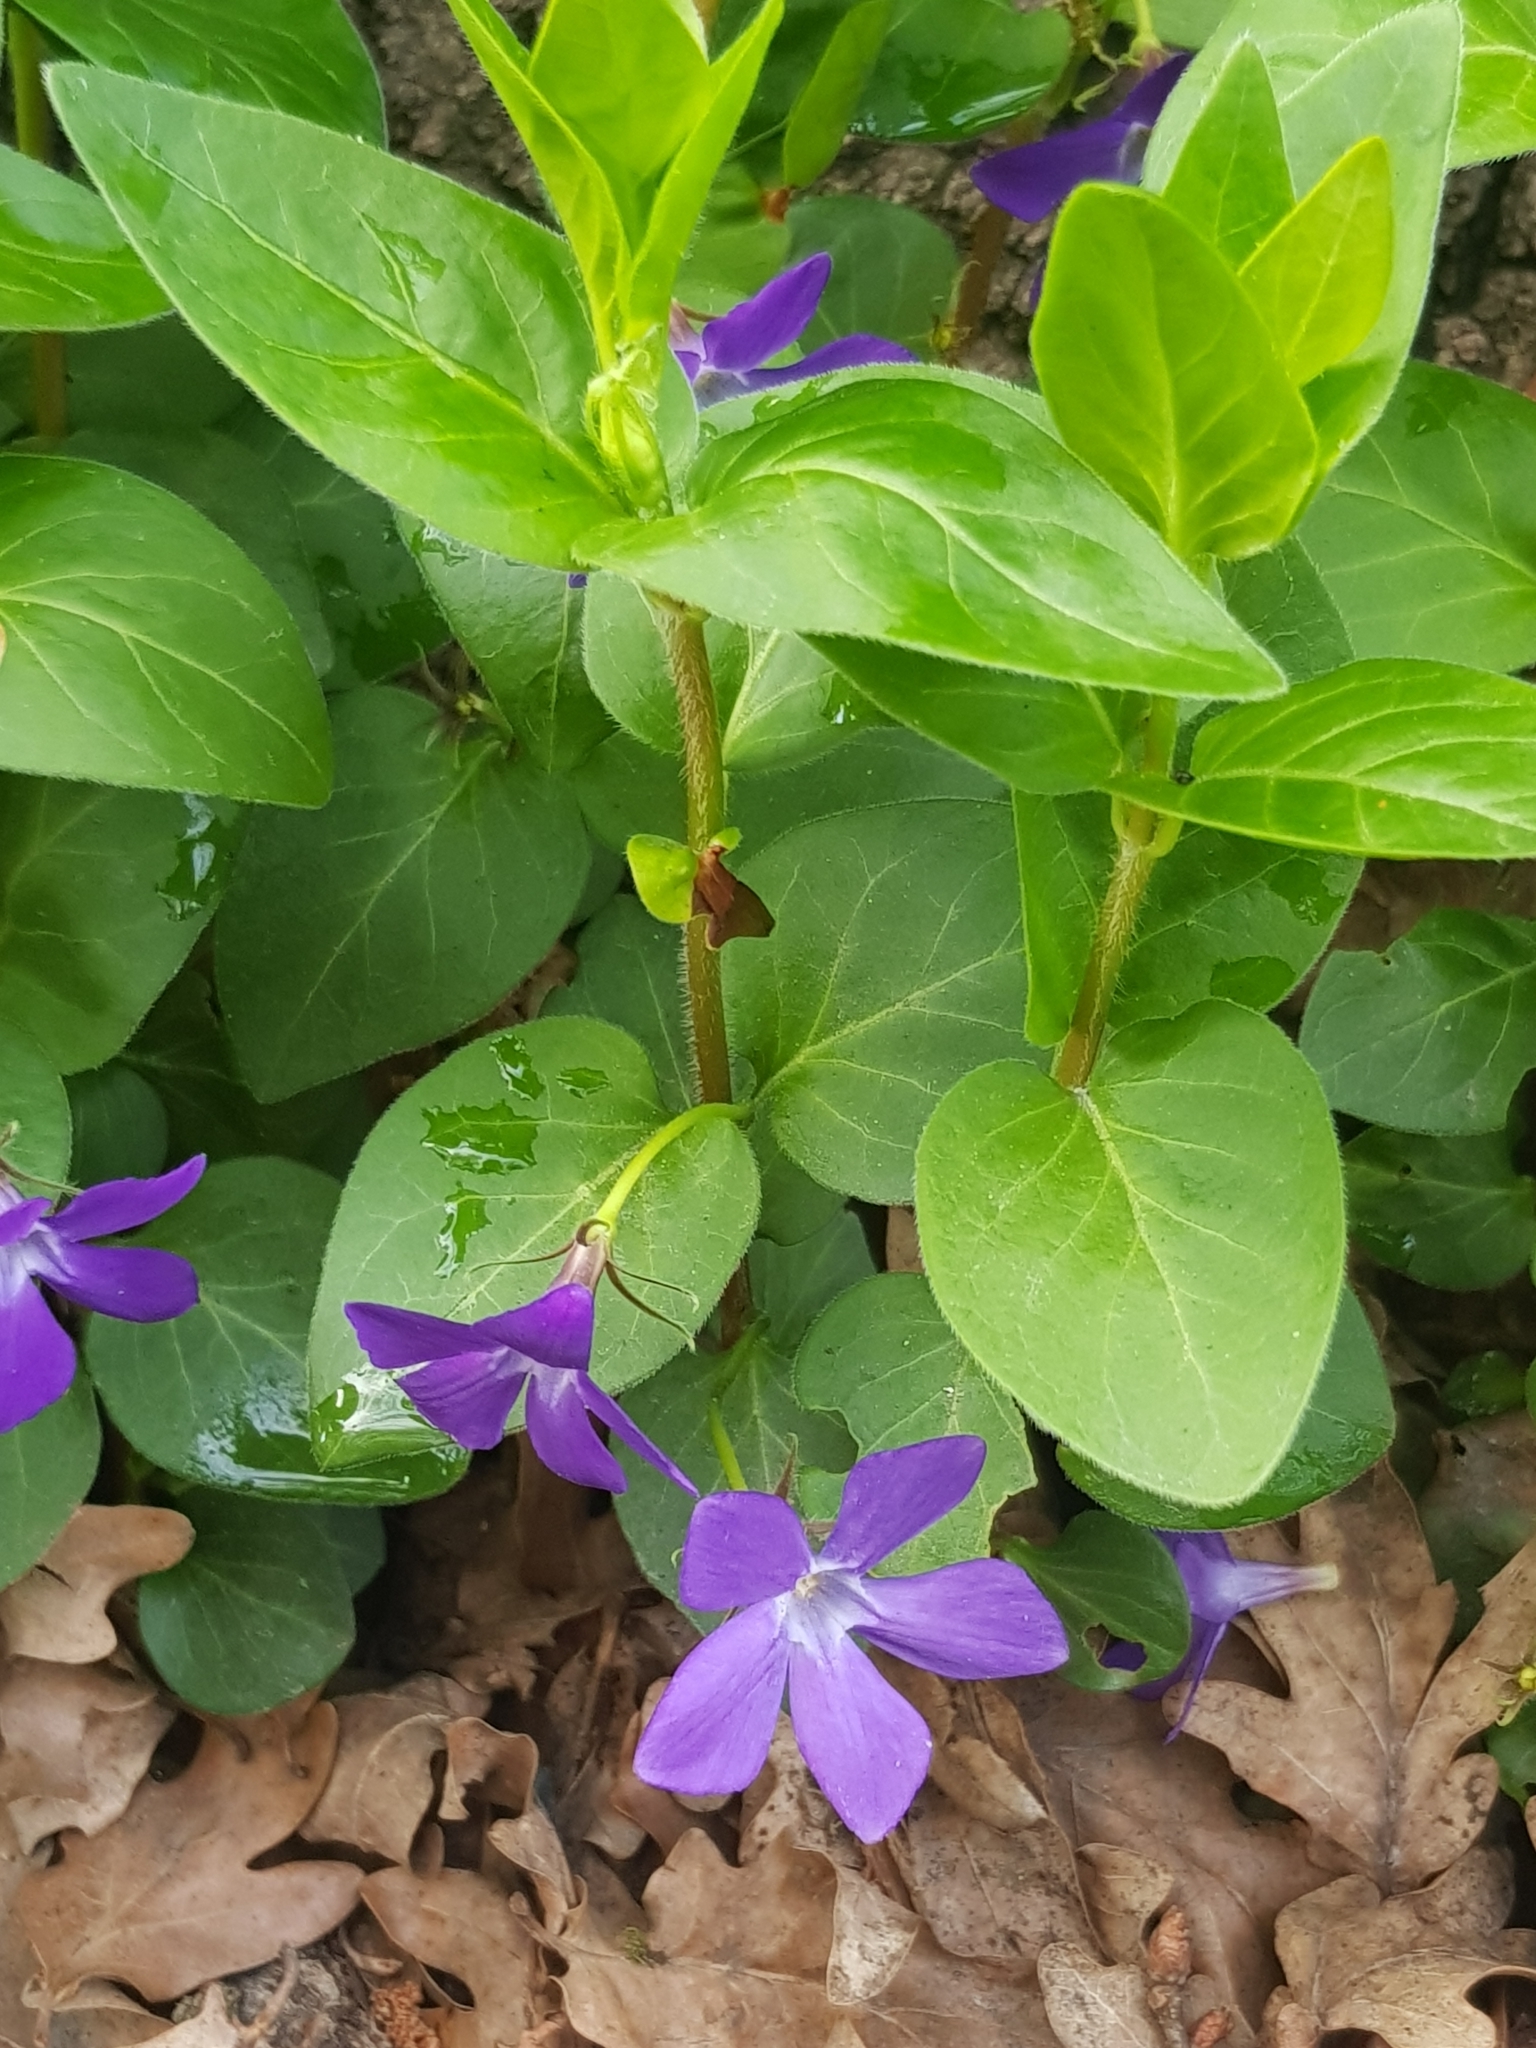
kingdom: Plantae
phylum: Tracheophyta
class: Magnoliopsida
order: Gentianales
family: Apocynaceae
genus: Vinca
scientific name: Vinca major
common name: Greater periwinkle
